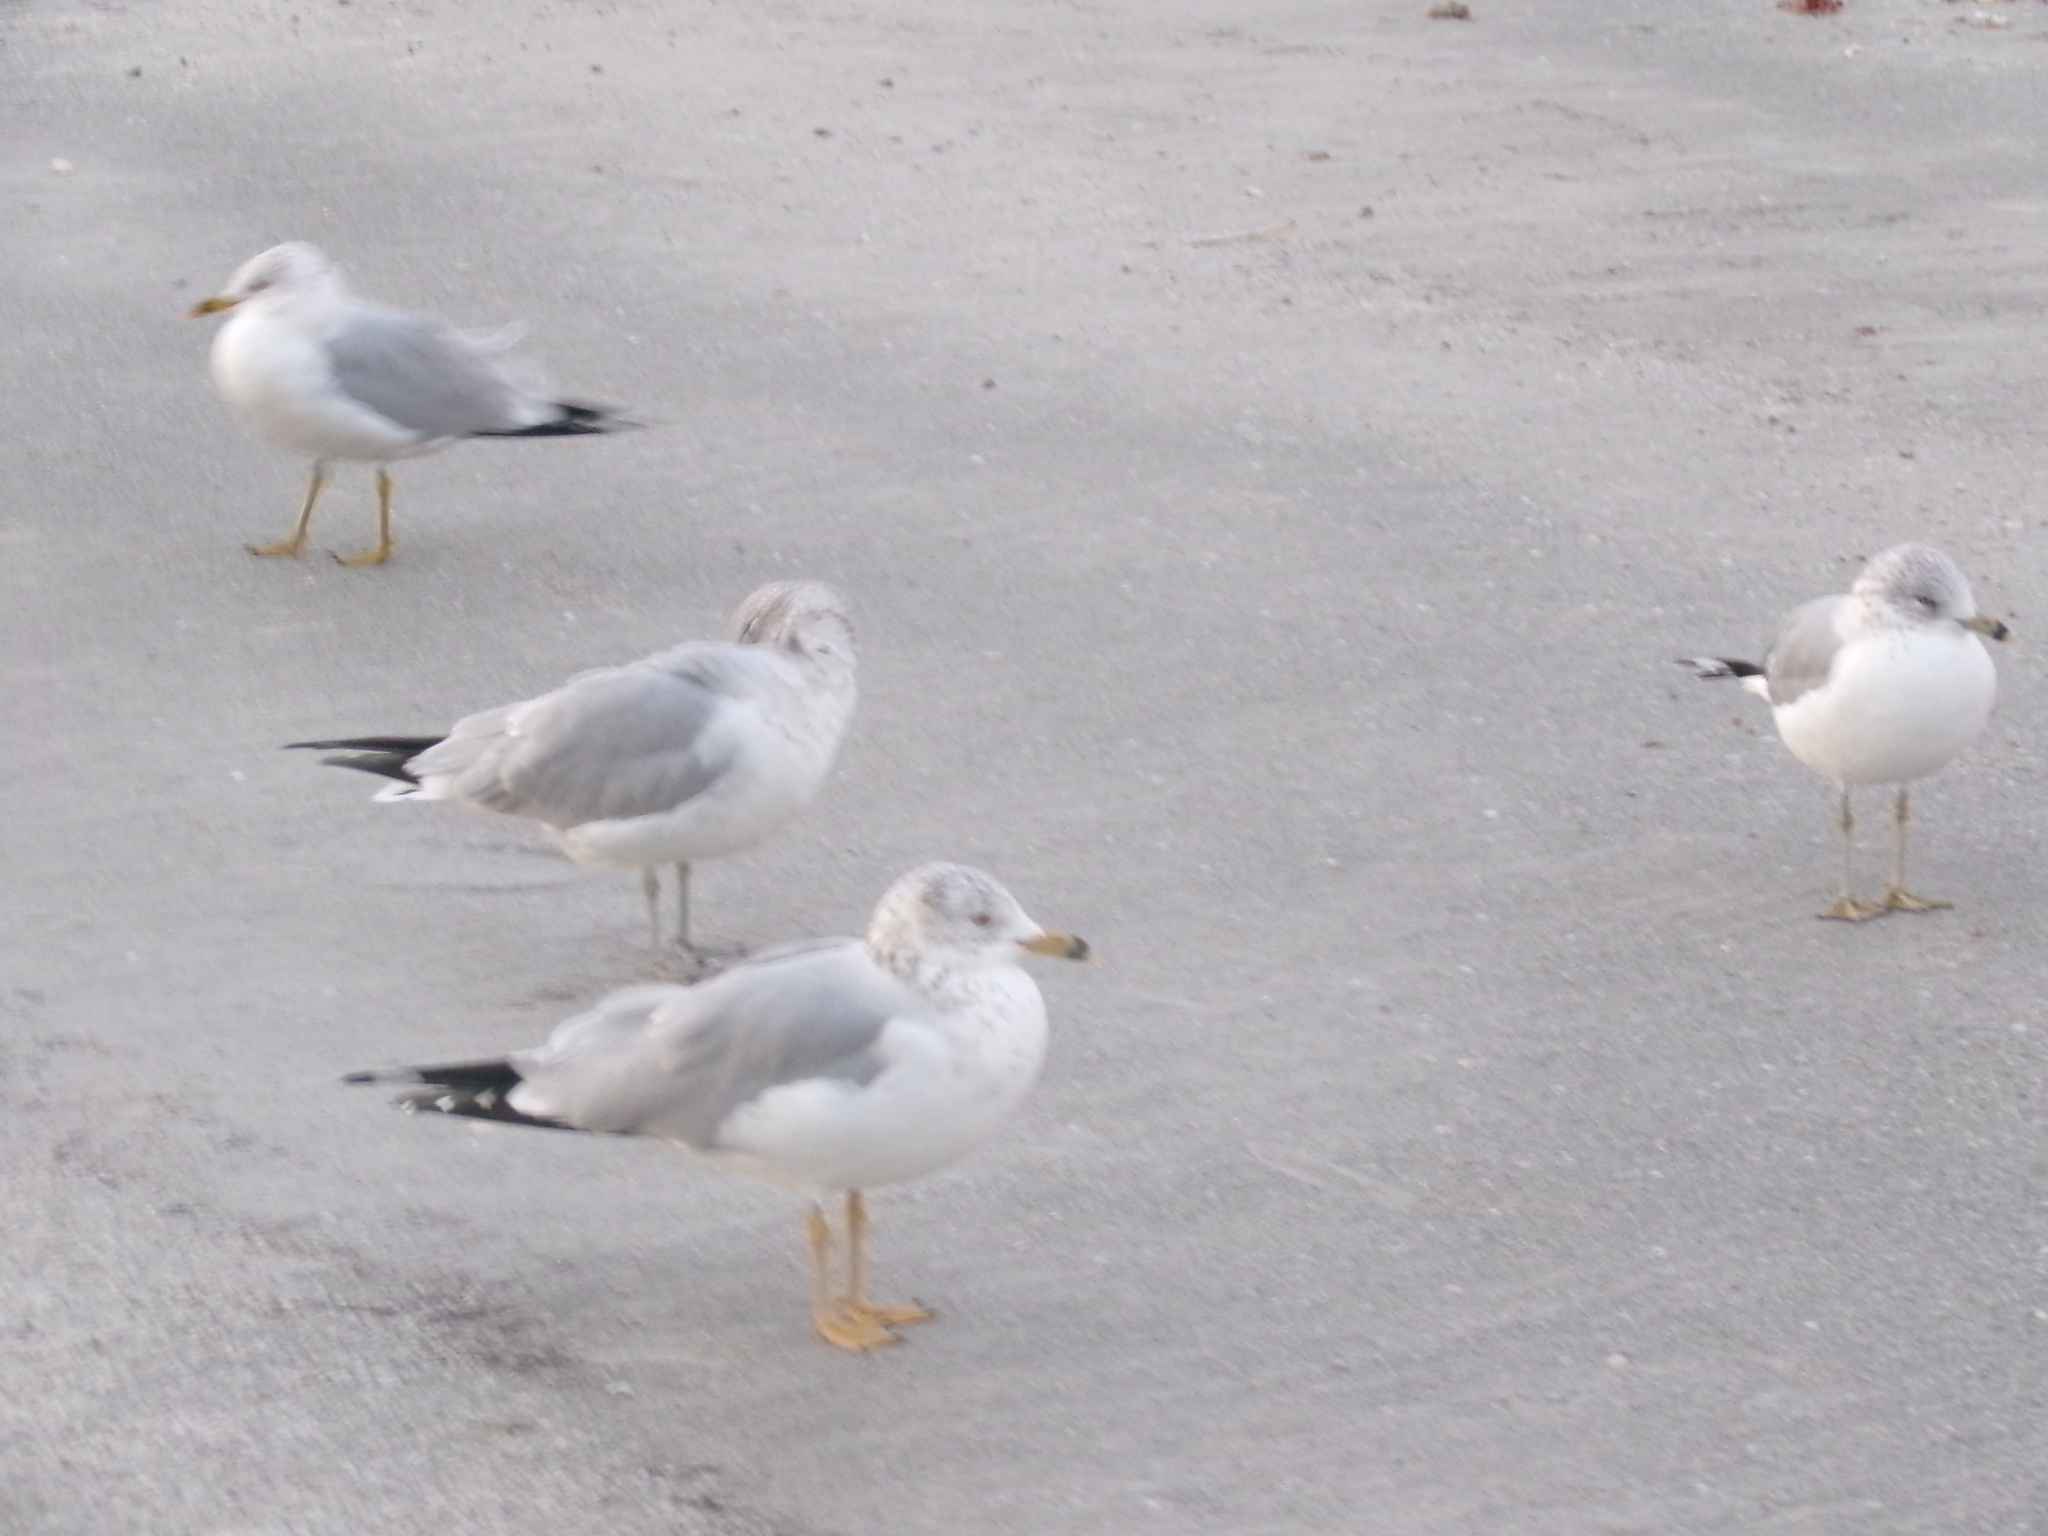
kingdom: Animalia
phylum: Chordata
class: Aves
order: Charadriiformes
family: Laridae
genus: Larus
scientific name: Larus delawarensis
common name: Ring-billed gull
